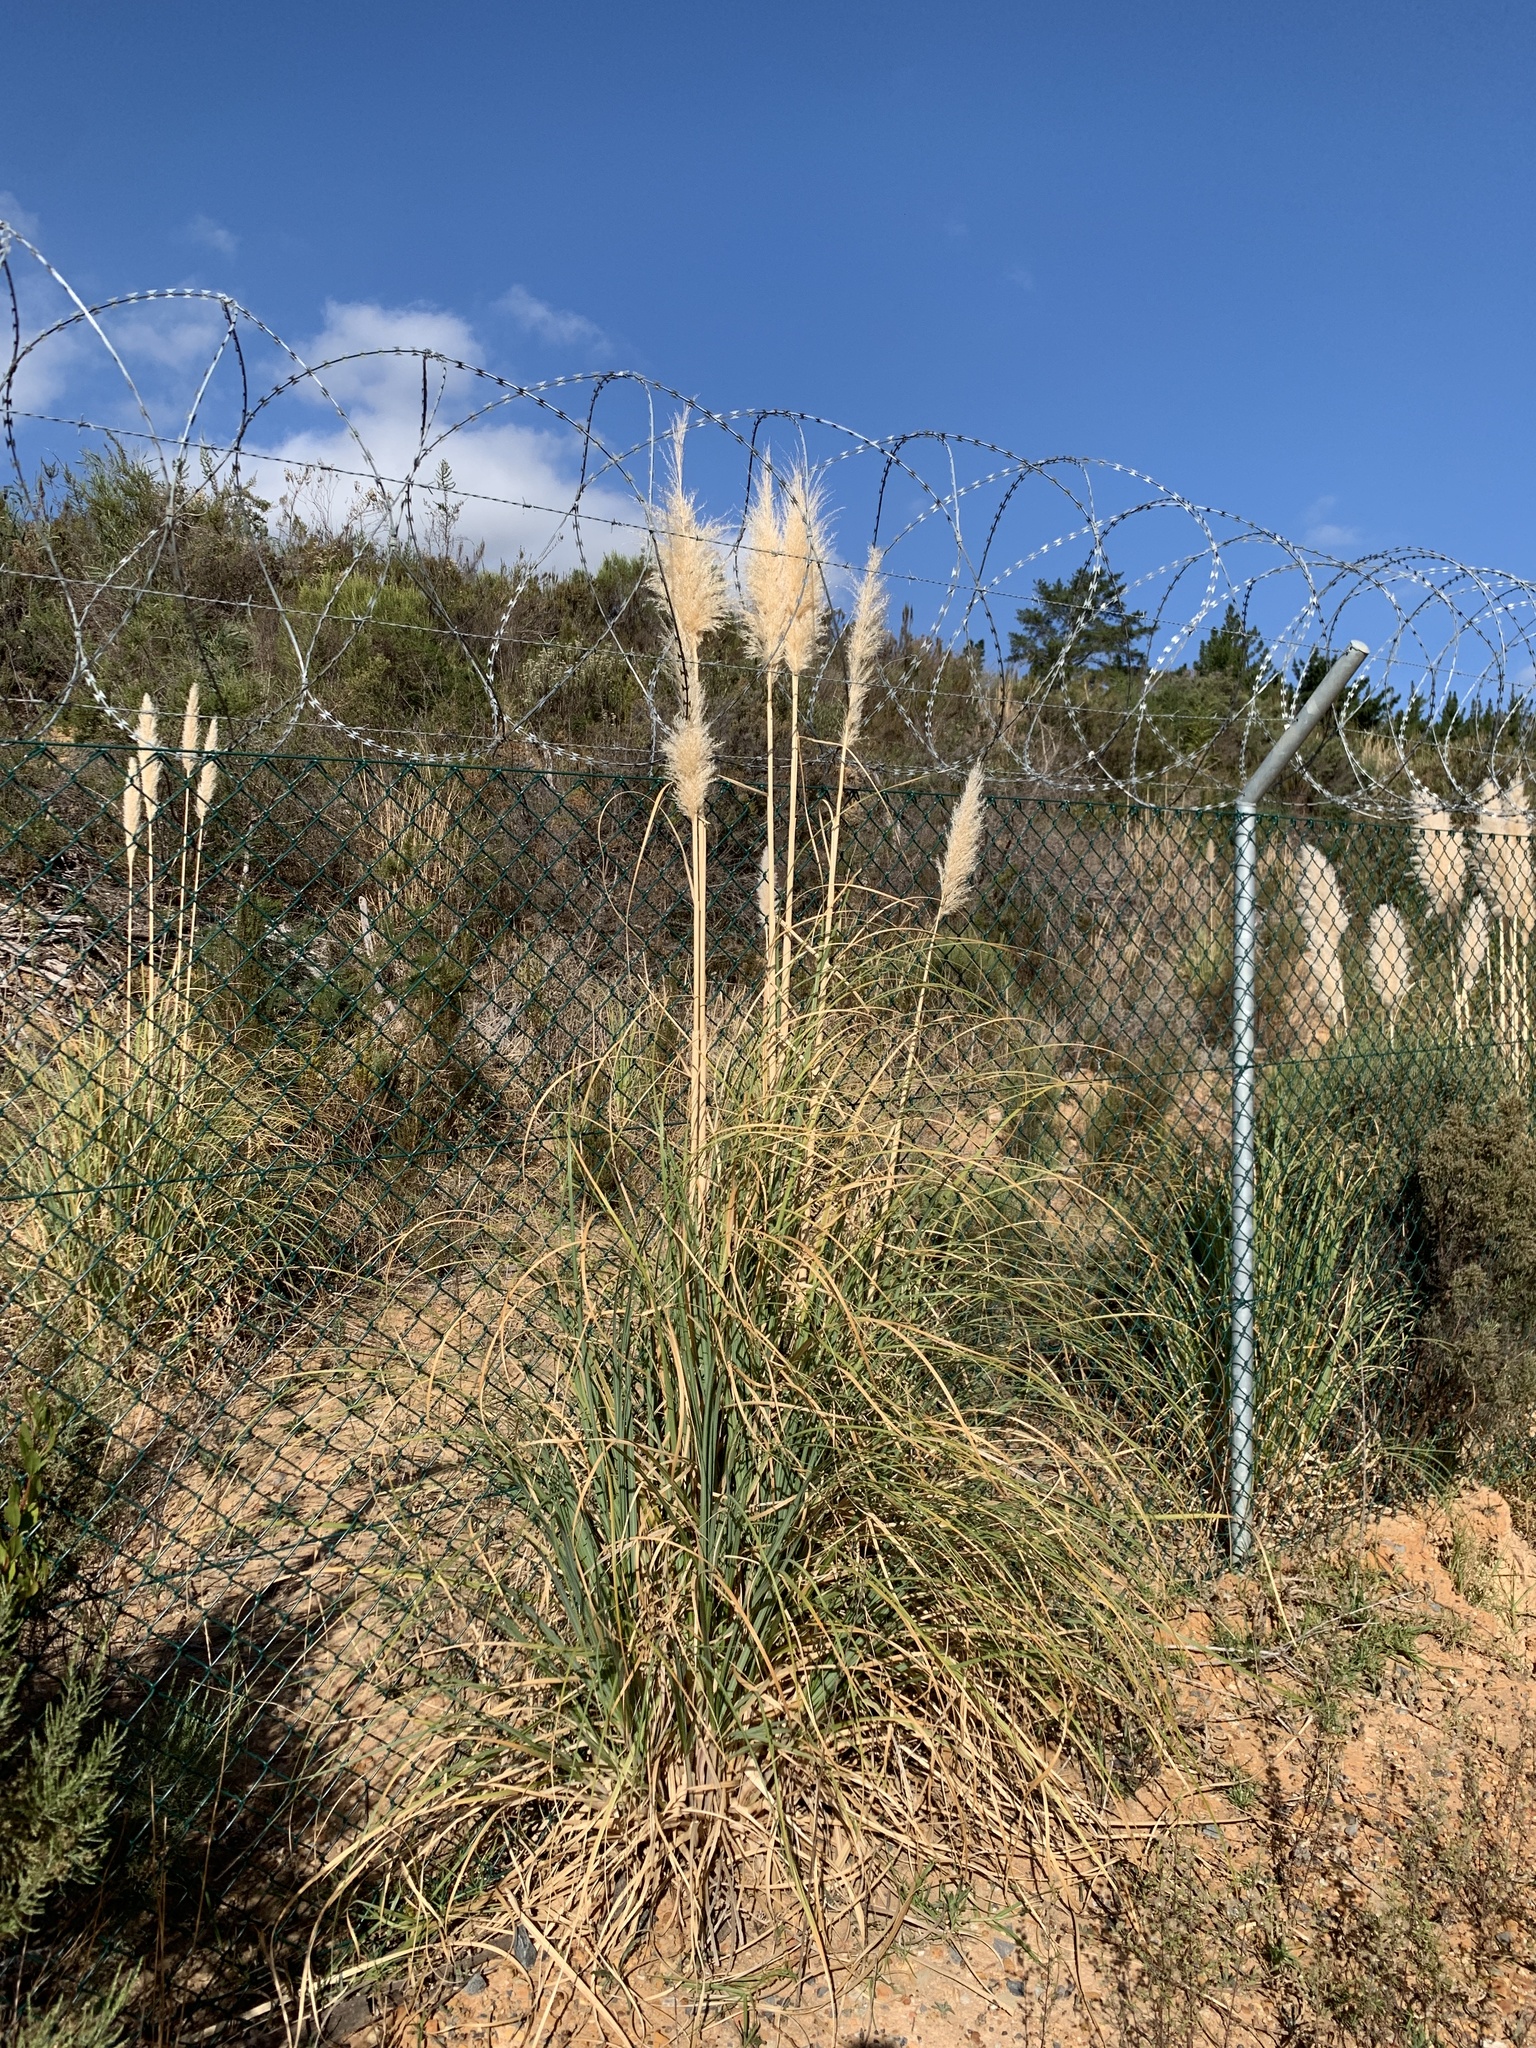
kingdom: Plantae
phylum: Tracheophyta
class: Liliopsida
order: Poales
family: Poaceae
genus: Cortaderia
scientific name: Cortaderia selloana
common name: Uruguayan pampas grass
